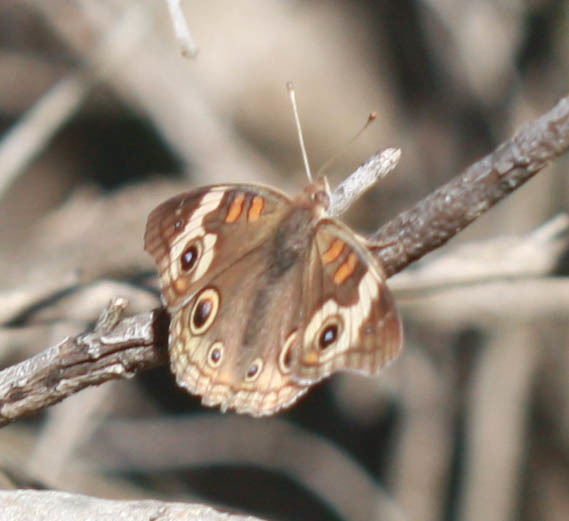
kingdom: Animalia
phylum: Arthropoda
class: Insecta
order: Lepidoptera
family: Nymphalidae
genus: Junonia
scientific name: Junonia grisea
